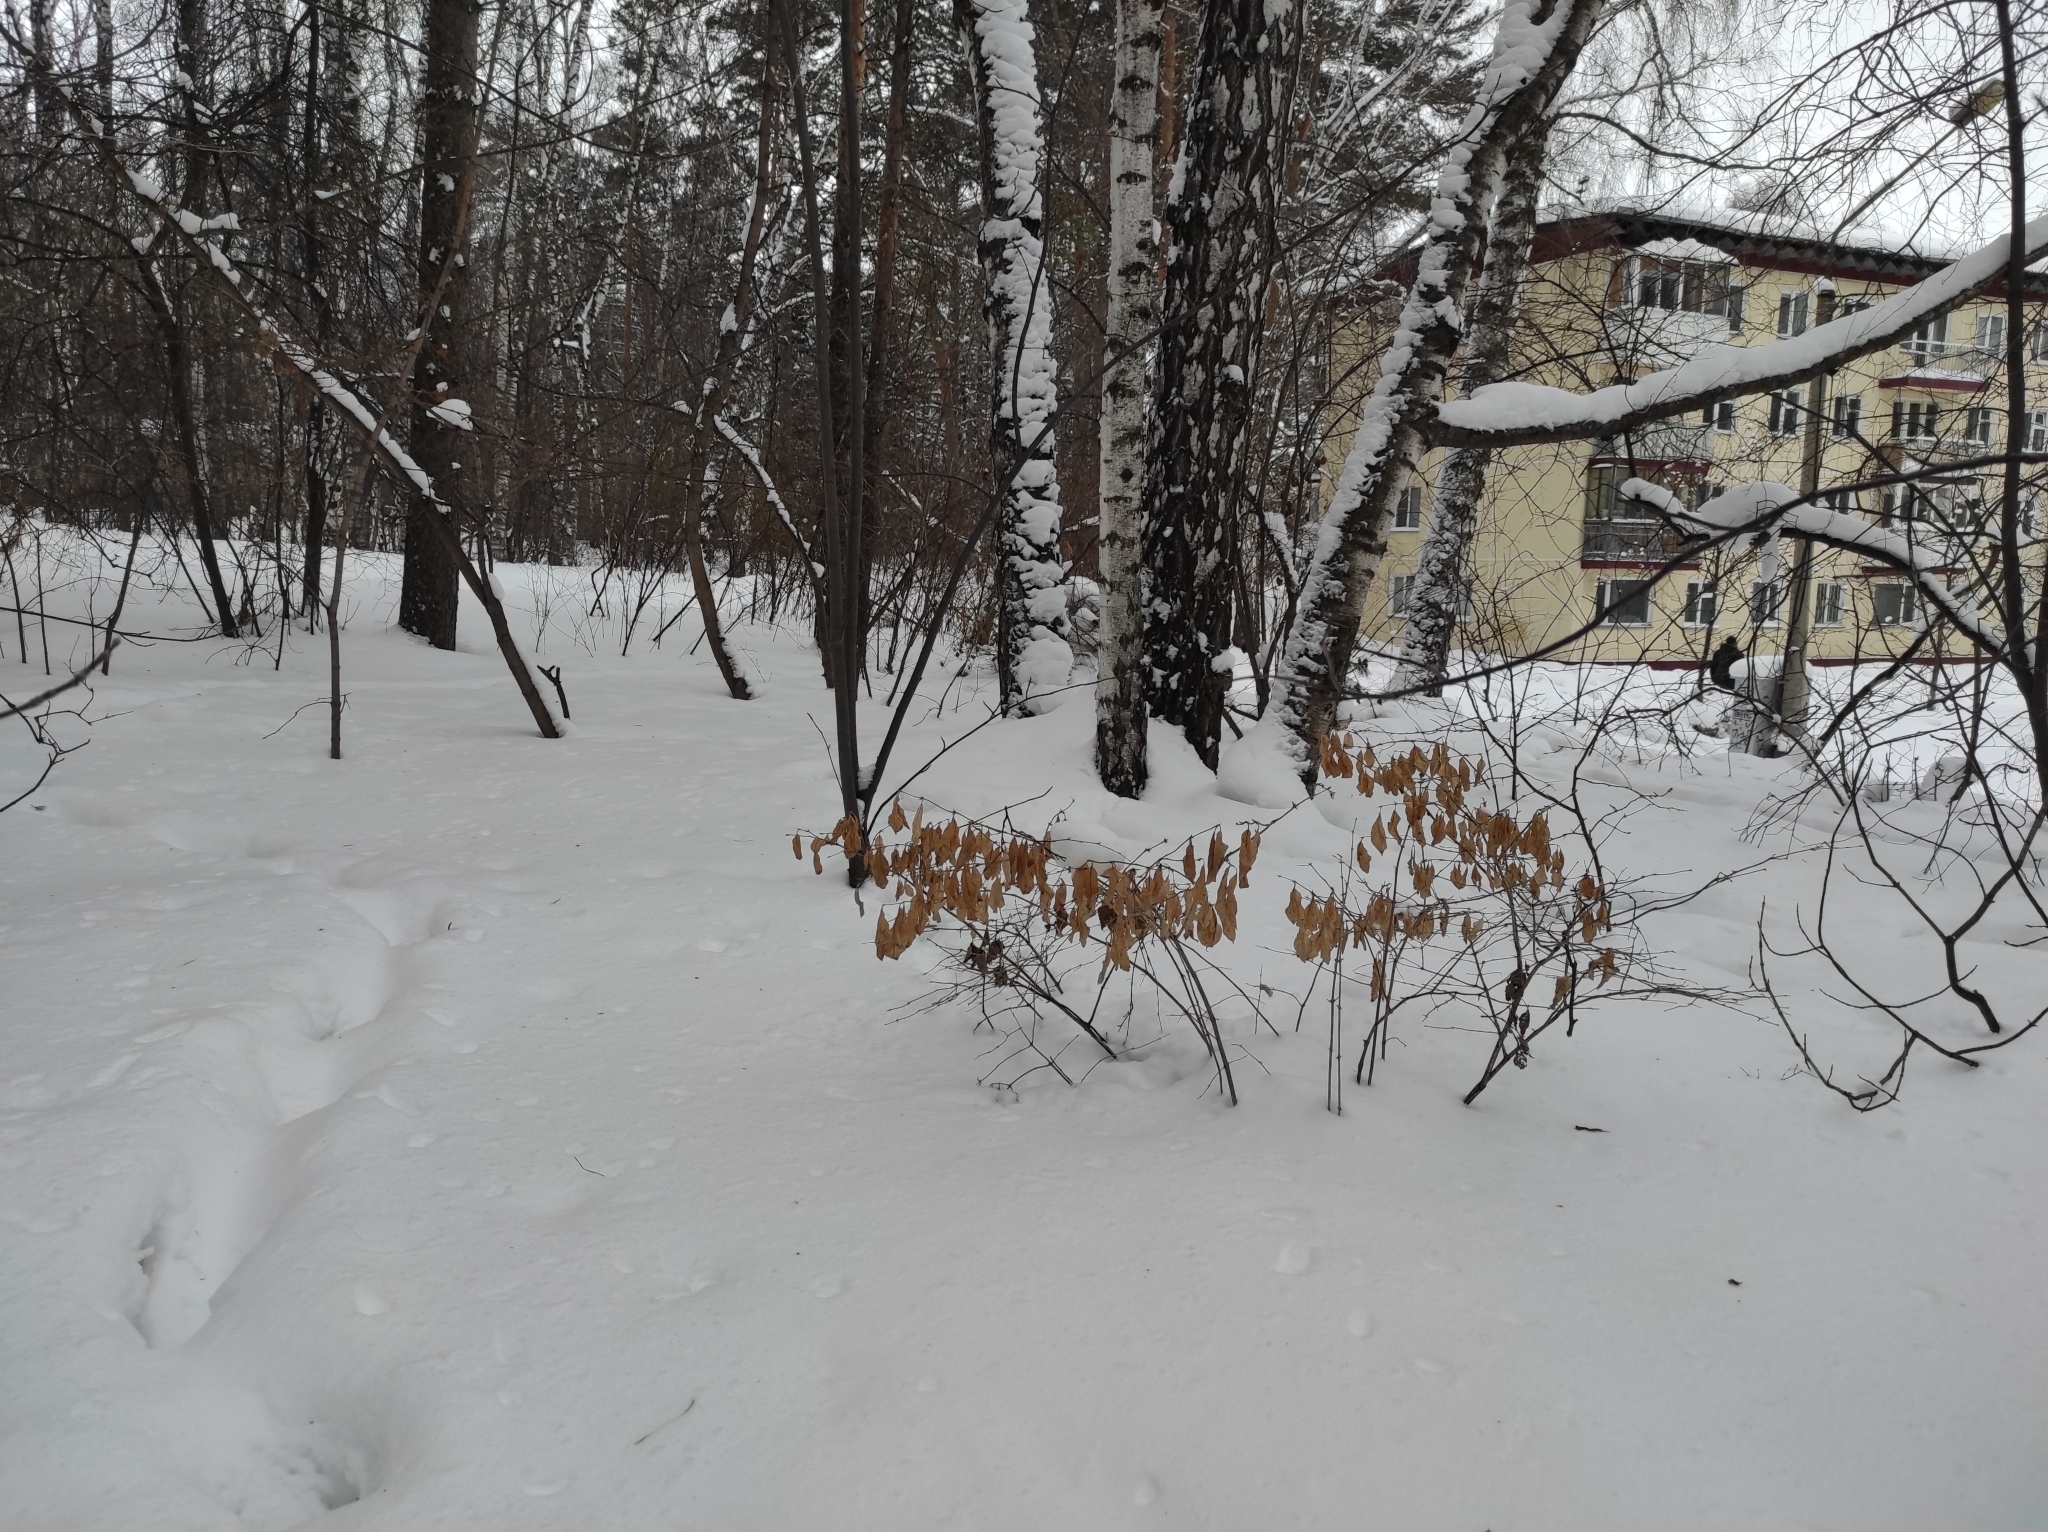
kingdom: Plantae
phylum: Tracheophyta
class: Magnoliopsida
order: Fagales
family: Betulaceae
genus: Betula
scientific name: Betula pendula
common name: Silver birch
